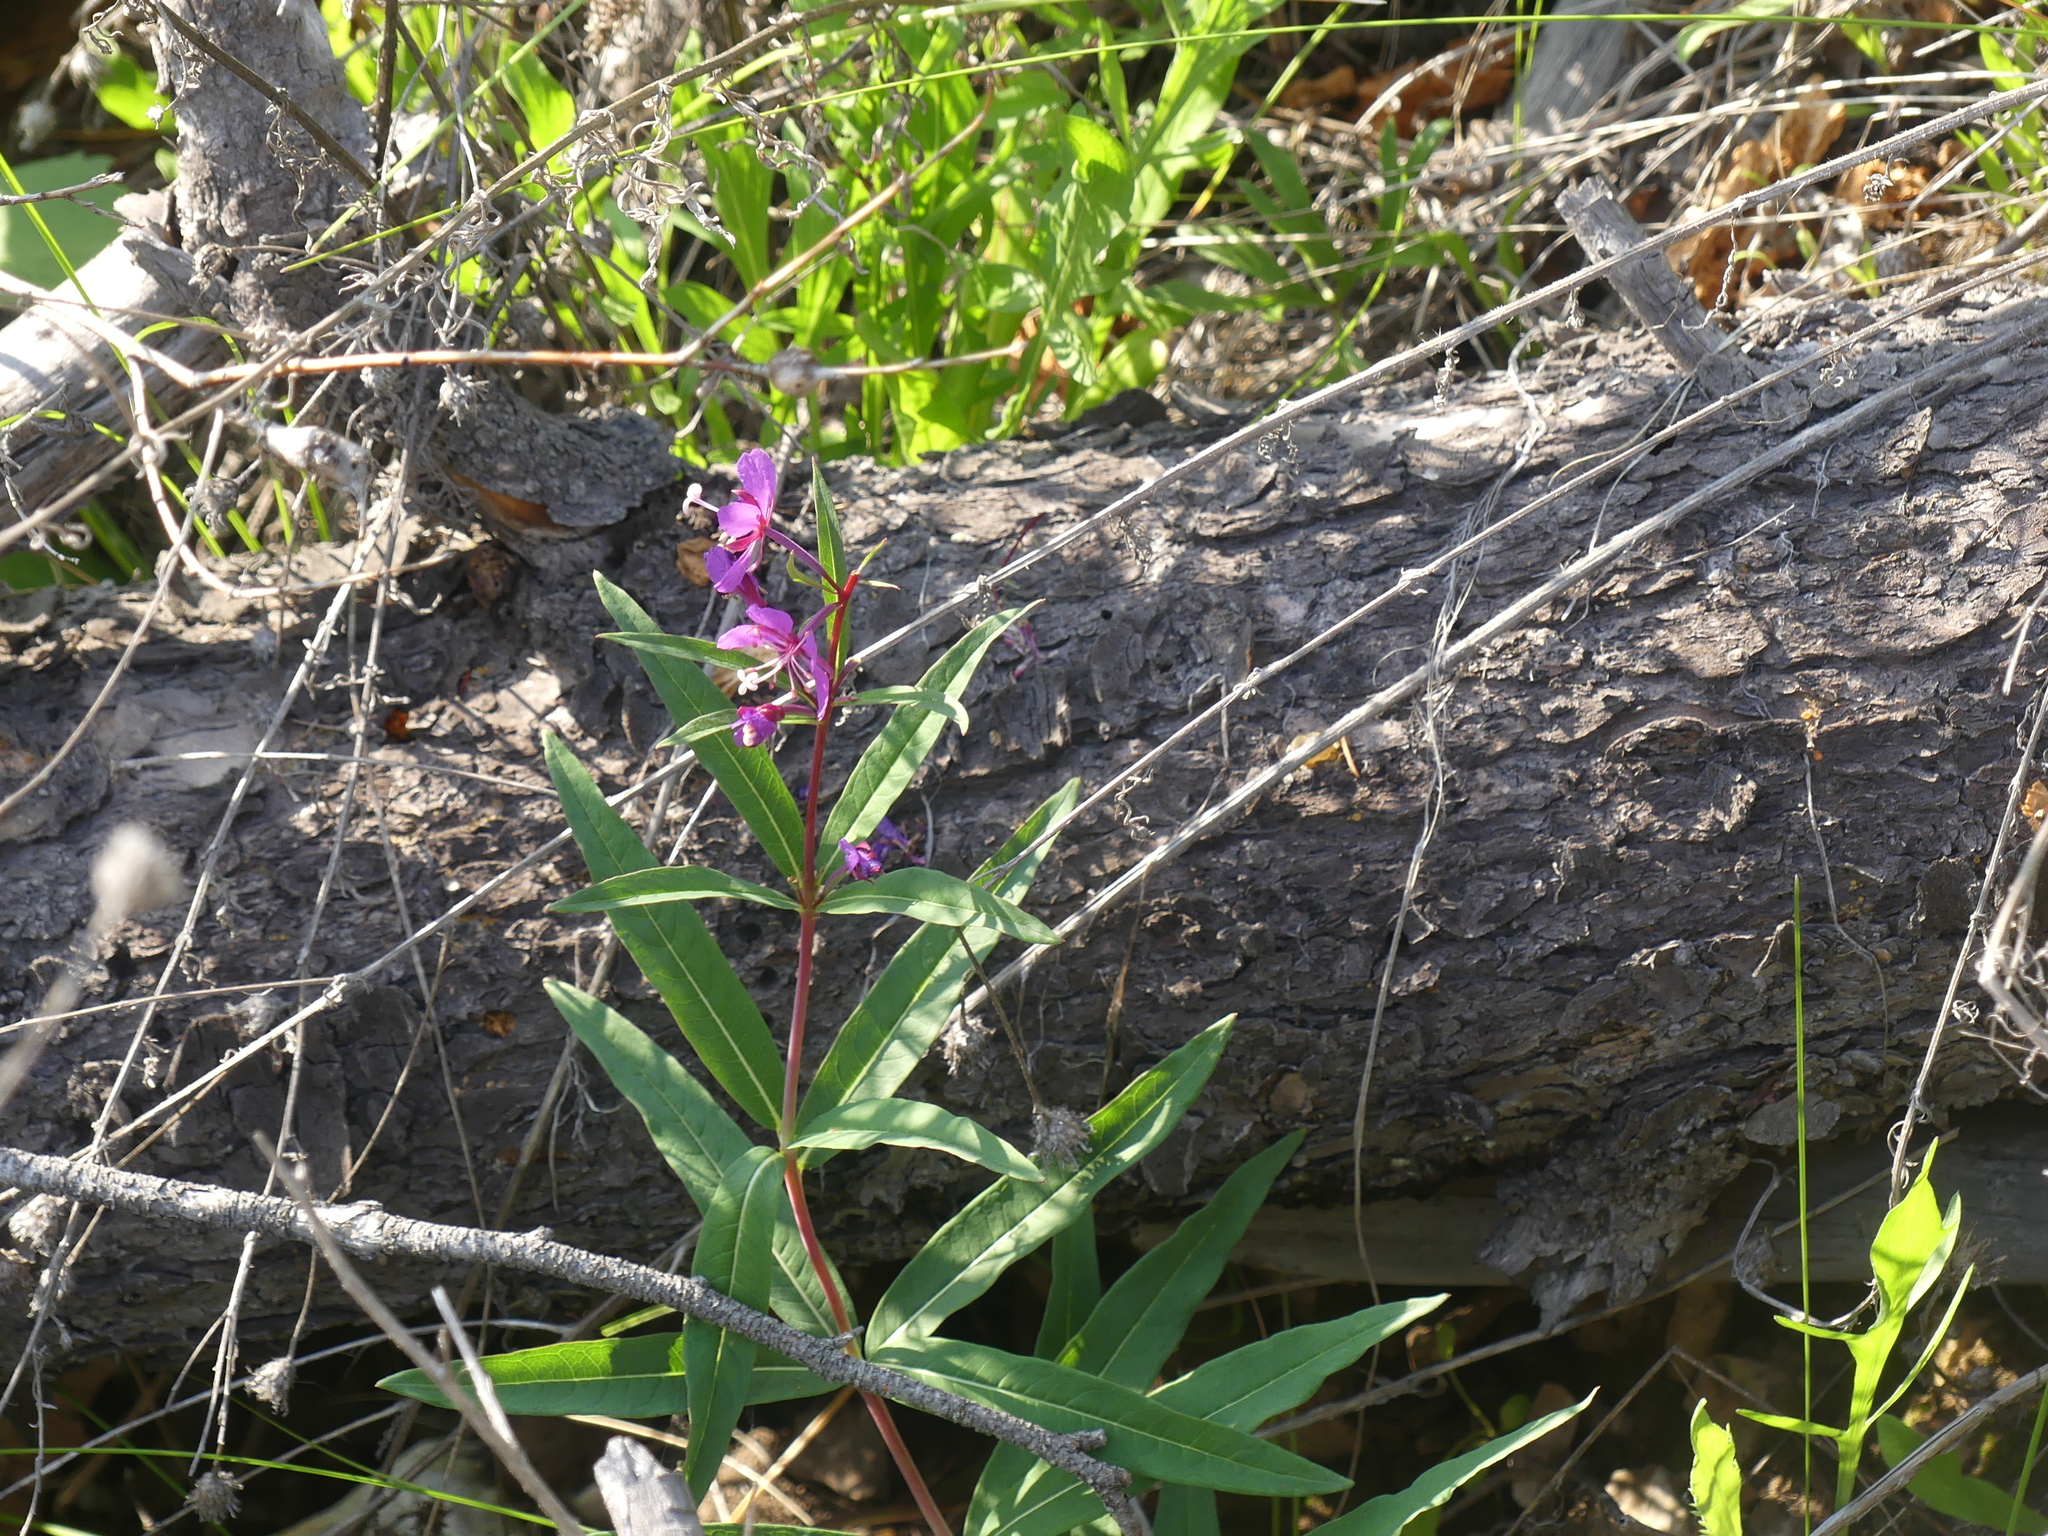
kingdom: Plantae
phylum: Tracheophyta
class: Magnoliopsida
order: Myrtales
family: Onagraceae
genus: Chamaenerion
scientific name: Chamaenerion angustifolium
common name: Fireweed
